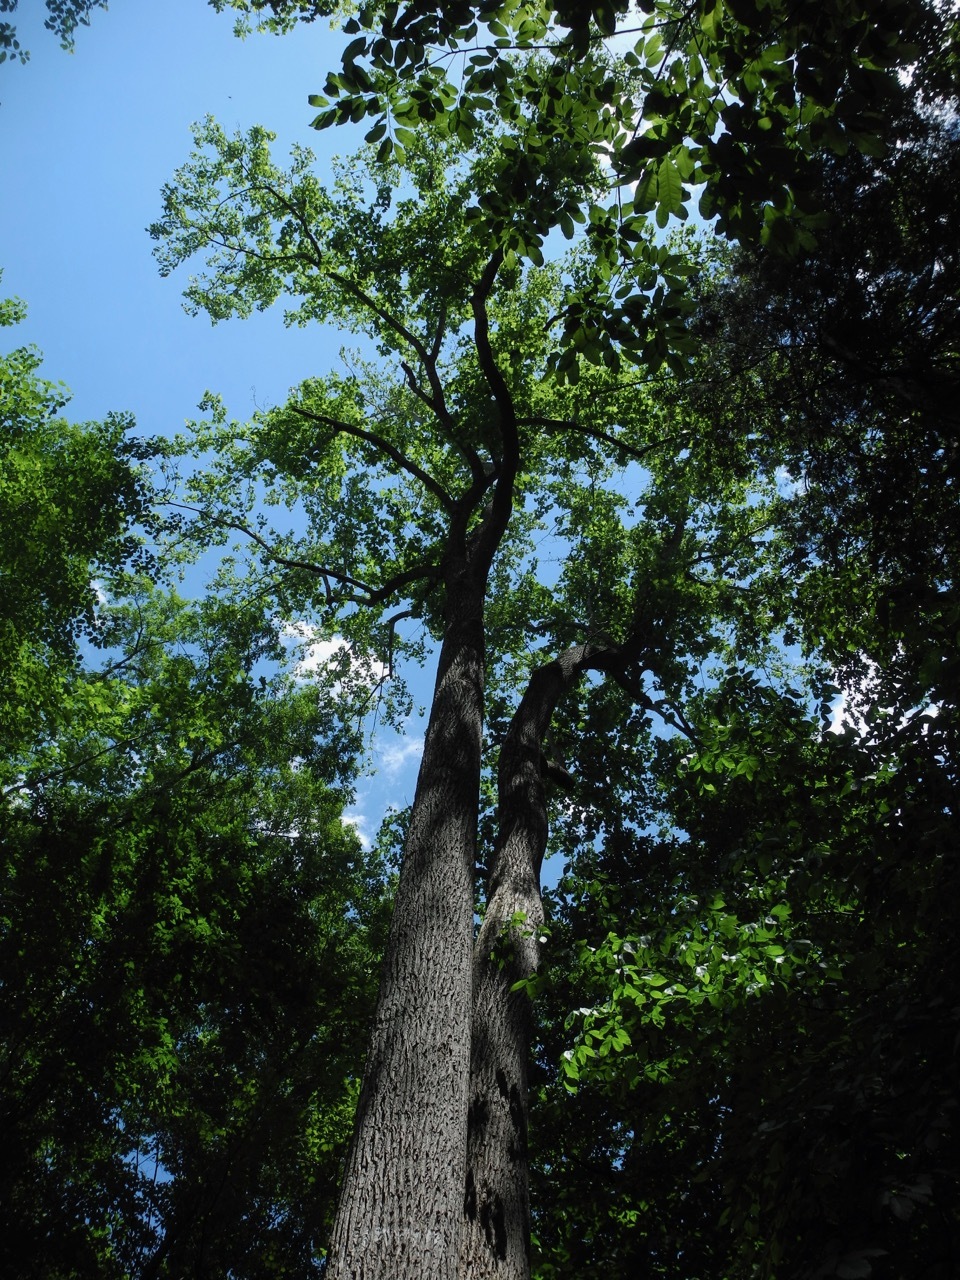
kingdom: Plantae
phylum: Tracheophyta
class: Magnoliopsida
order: Magnoliales
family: Magnoliaceae
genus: Liriodendron
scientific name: Liriodendron tulipifera
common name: Tulip tree
